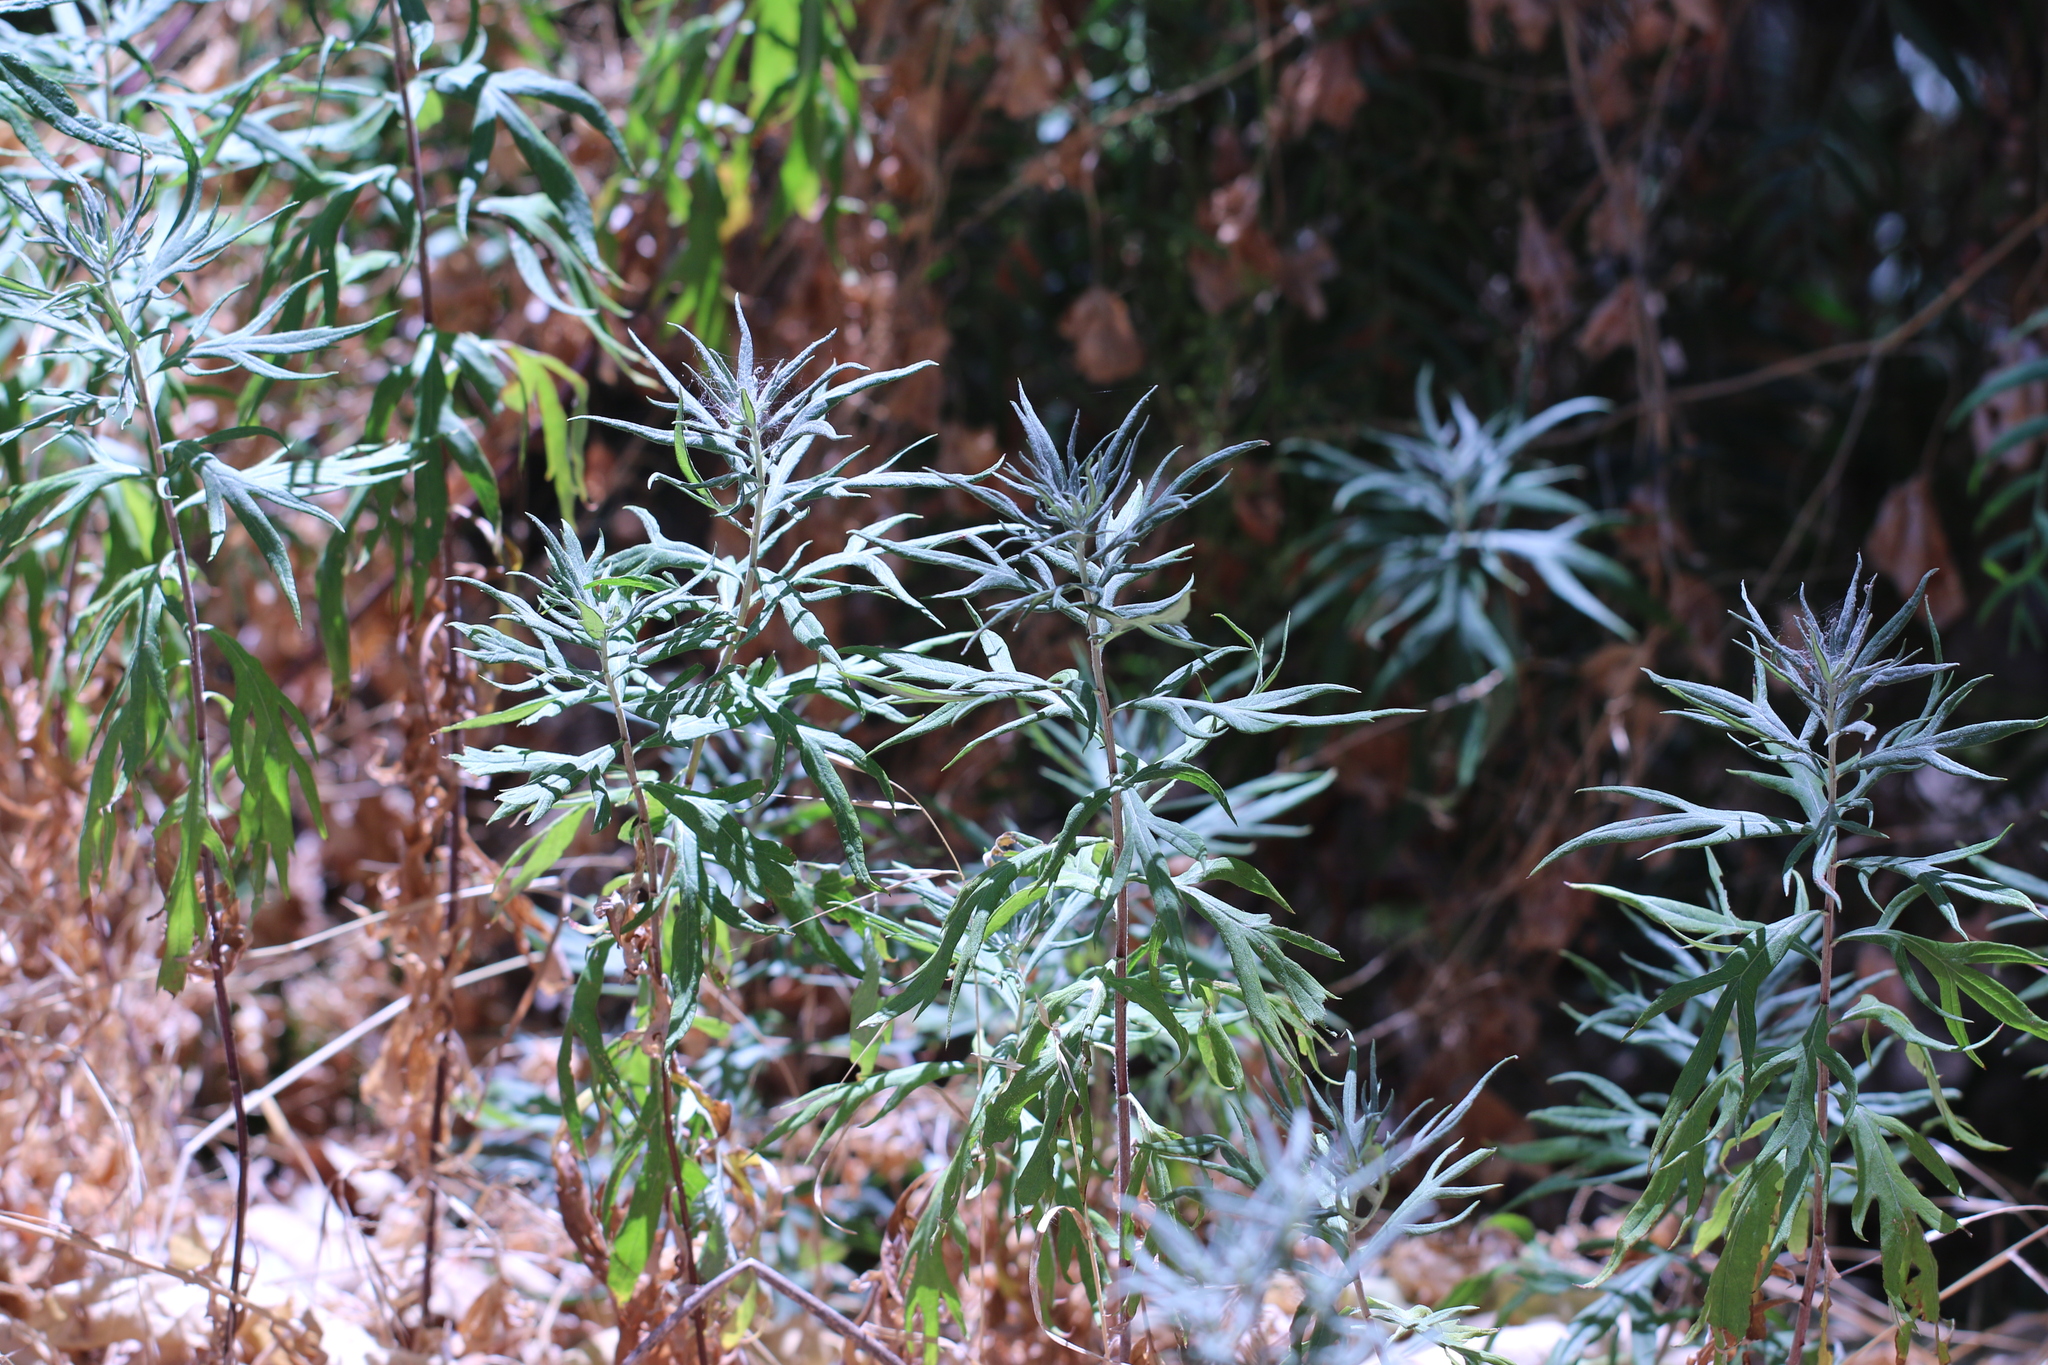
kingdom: Plantae
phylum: Tracheophyta
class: Magnoliopsida
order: Asterales
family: Asteraceae
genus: Artemisia
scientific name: Artemisia douglasiana
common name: Northwest mugwort
